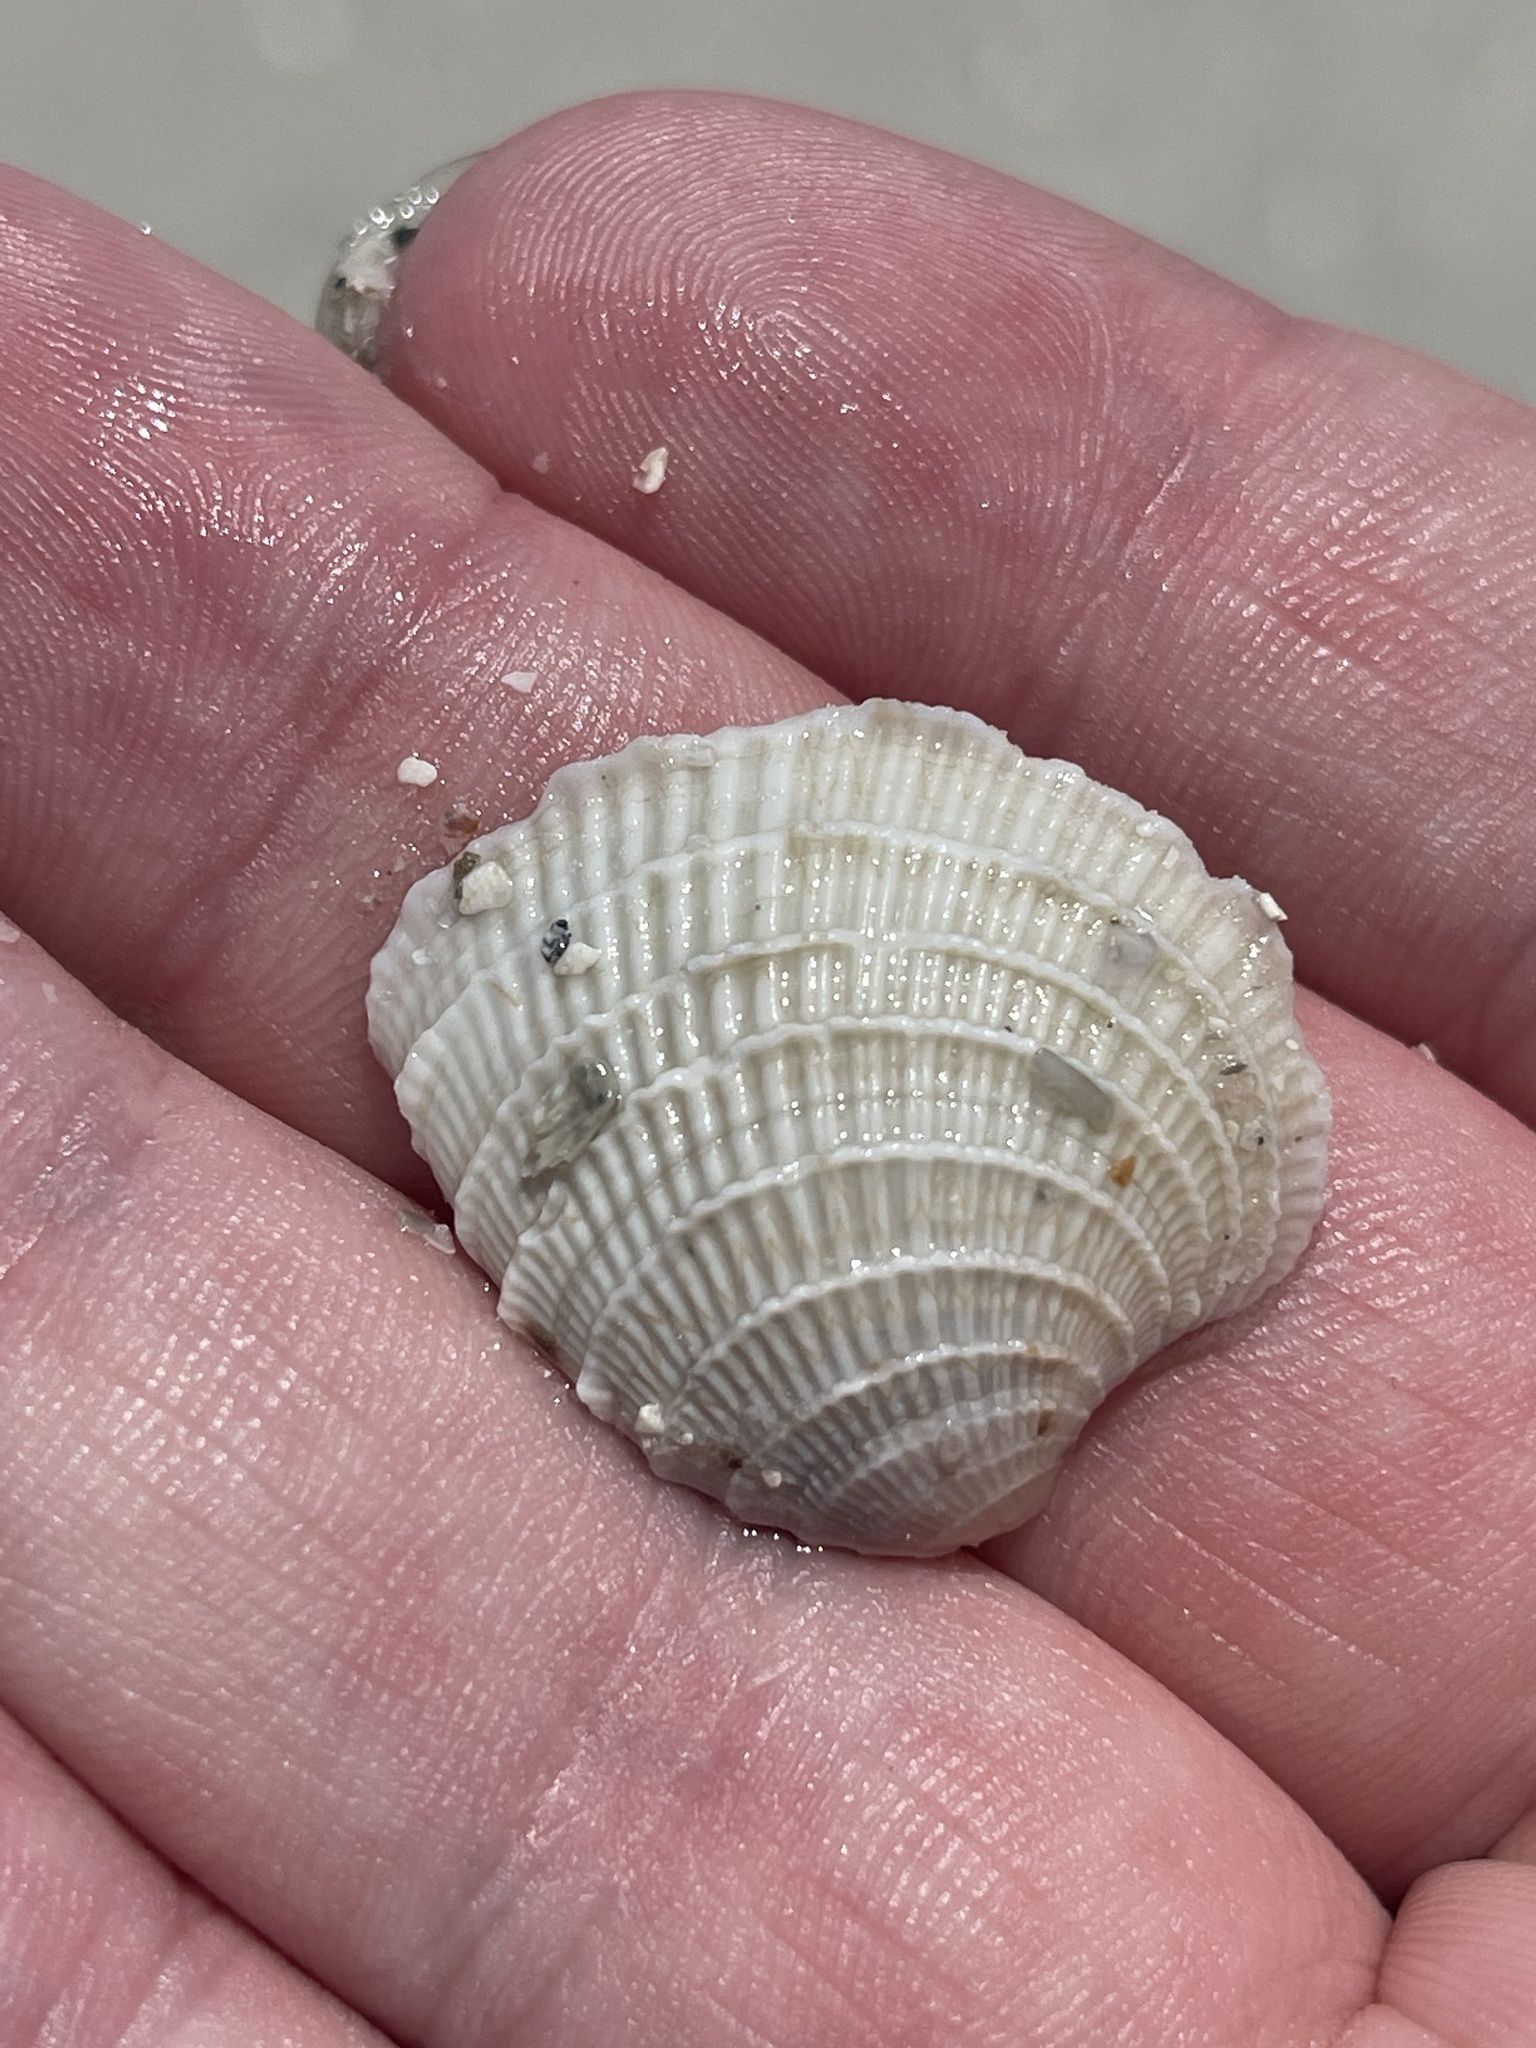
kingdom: Animalia
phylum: Mollusca
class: Bivalvia
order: Venerida
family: Veneridae
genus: Chione
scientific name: Chione elevata
